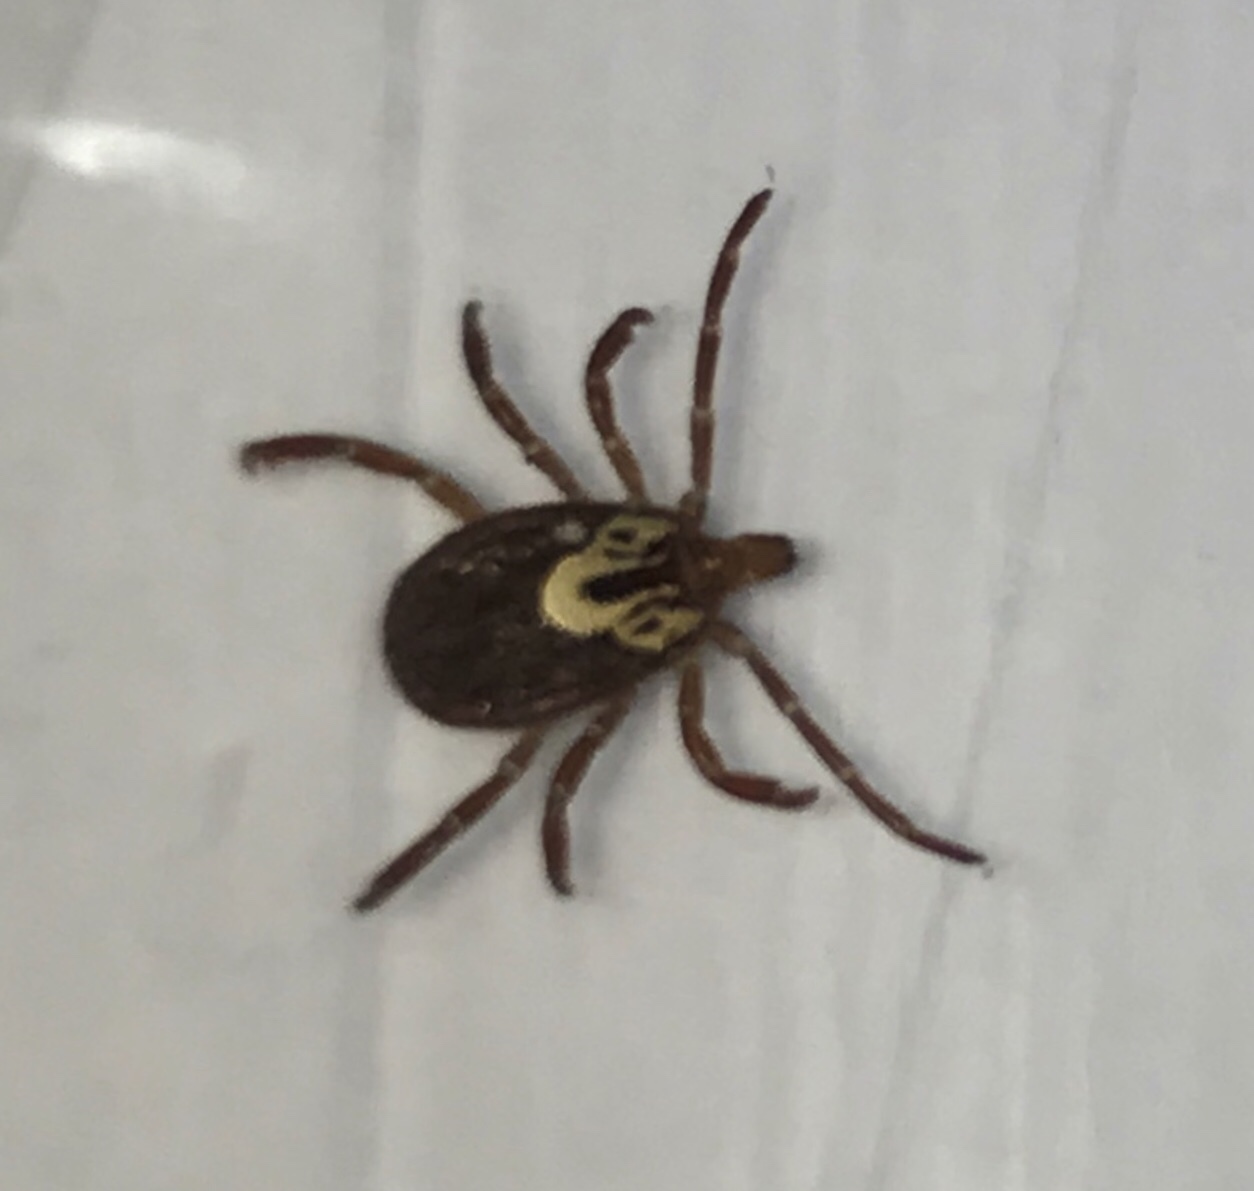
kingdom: Animalia
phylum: Arthropoda
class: Arachnida
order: Ixodida
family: Ixodidae
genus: Amblyomma
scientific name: Amblyomma maculatum
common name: Gulf coast tick
